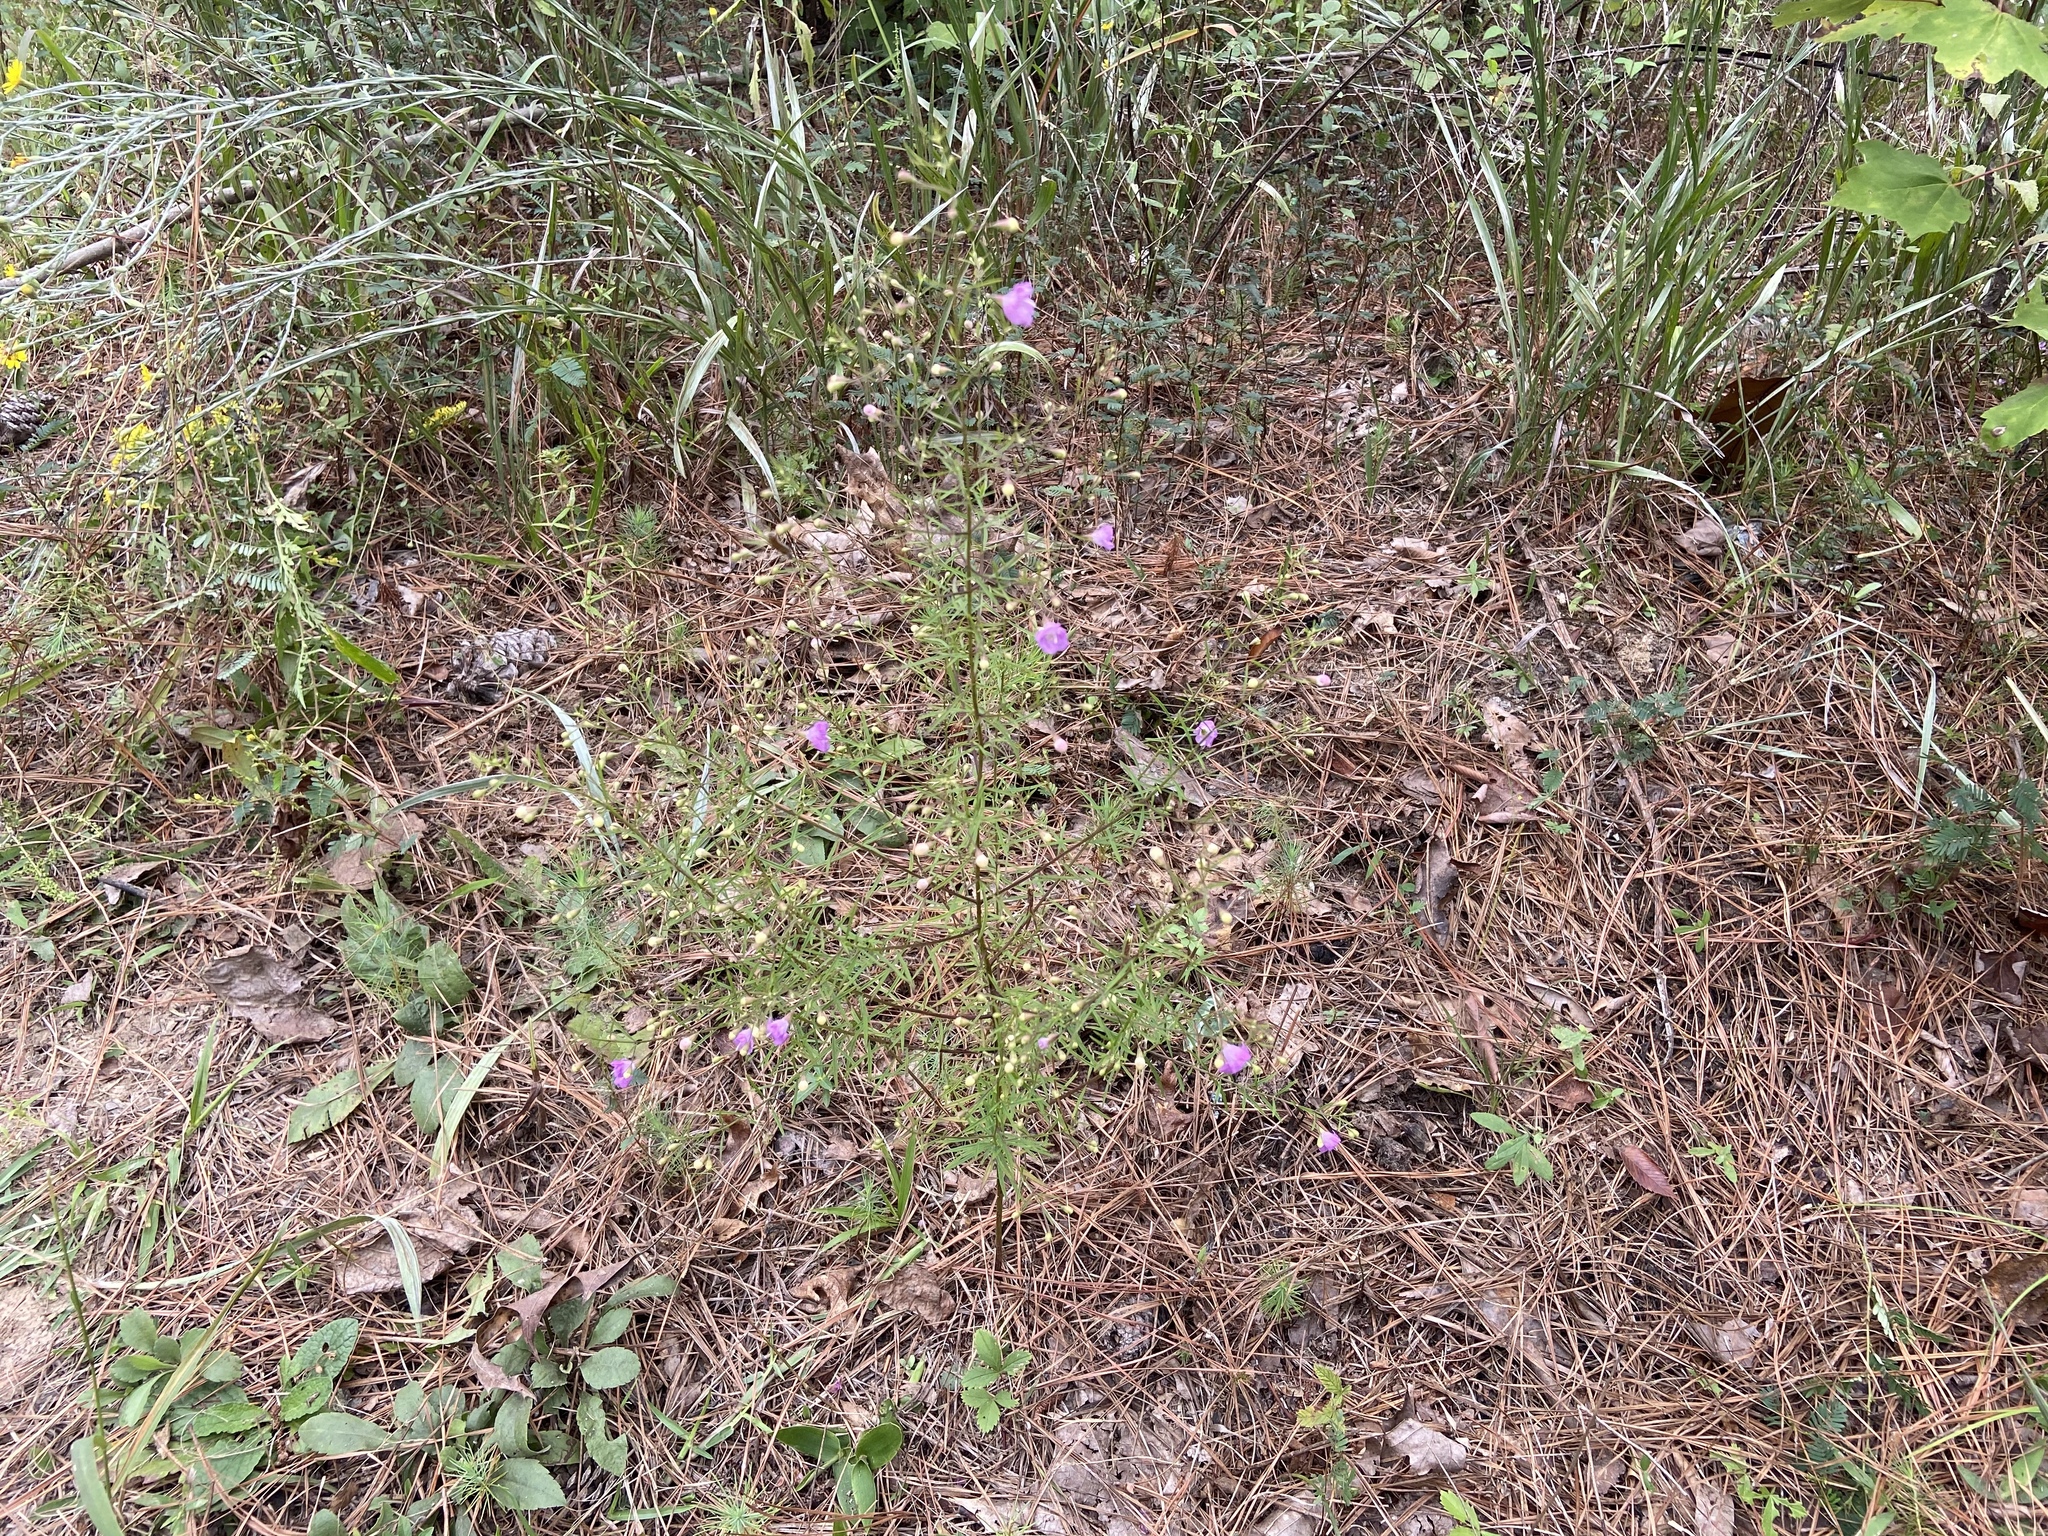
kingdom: Plantae
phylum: Tracheophyta
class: Magnoliopsida
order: Lamiales
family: Orobanchaceae
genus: Agalinis
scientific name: Agalinis tenuifolia
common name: Slender agalinis
